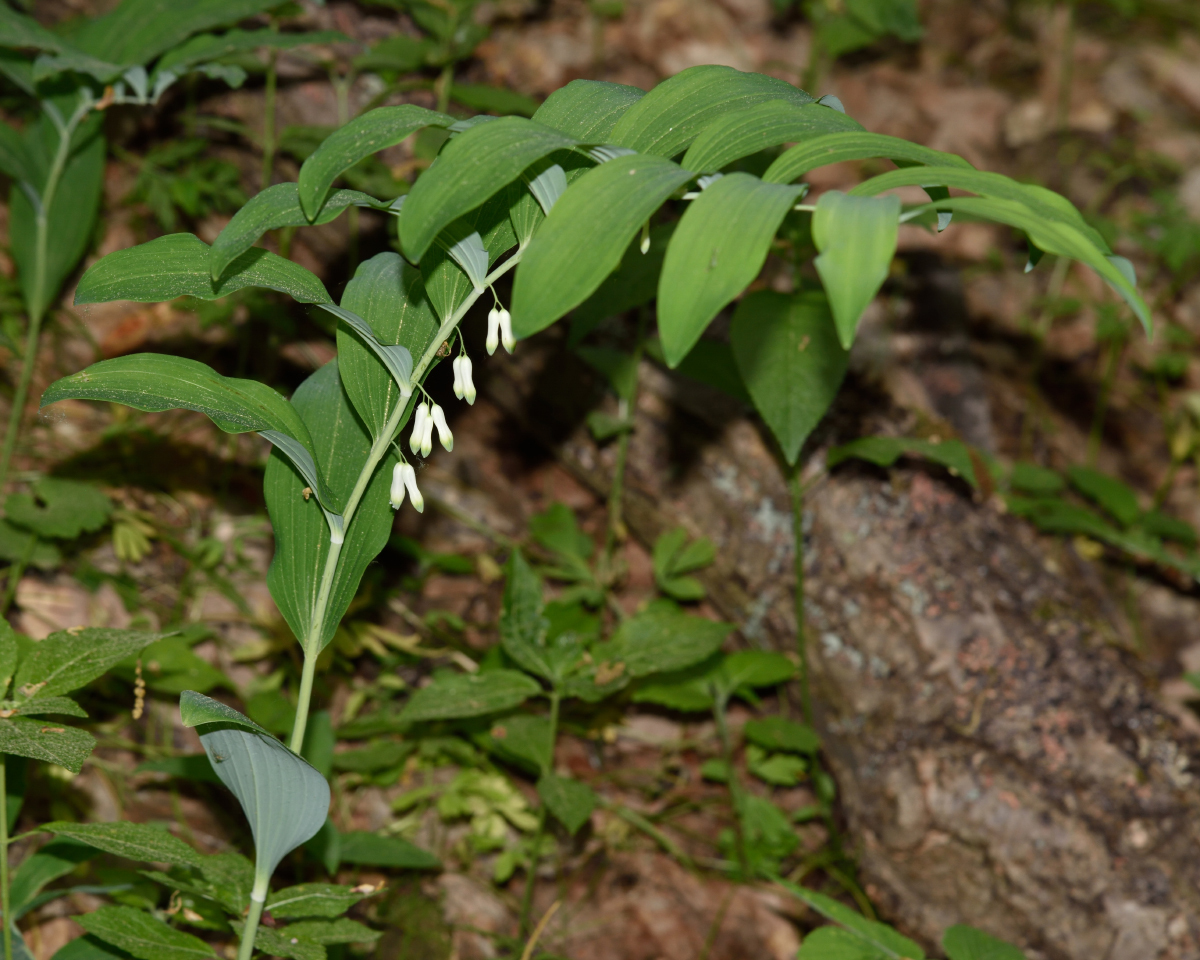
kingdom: Plantae
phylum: Tracheophyta
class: Liliopsida
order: Asparagales
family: Asparagaceae
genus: Polygonatum
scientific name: Polygonatum multiflorum
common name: Solomon's-seal
